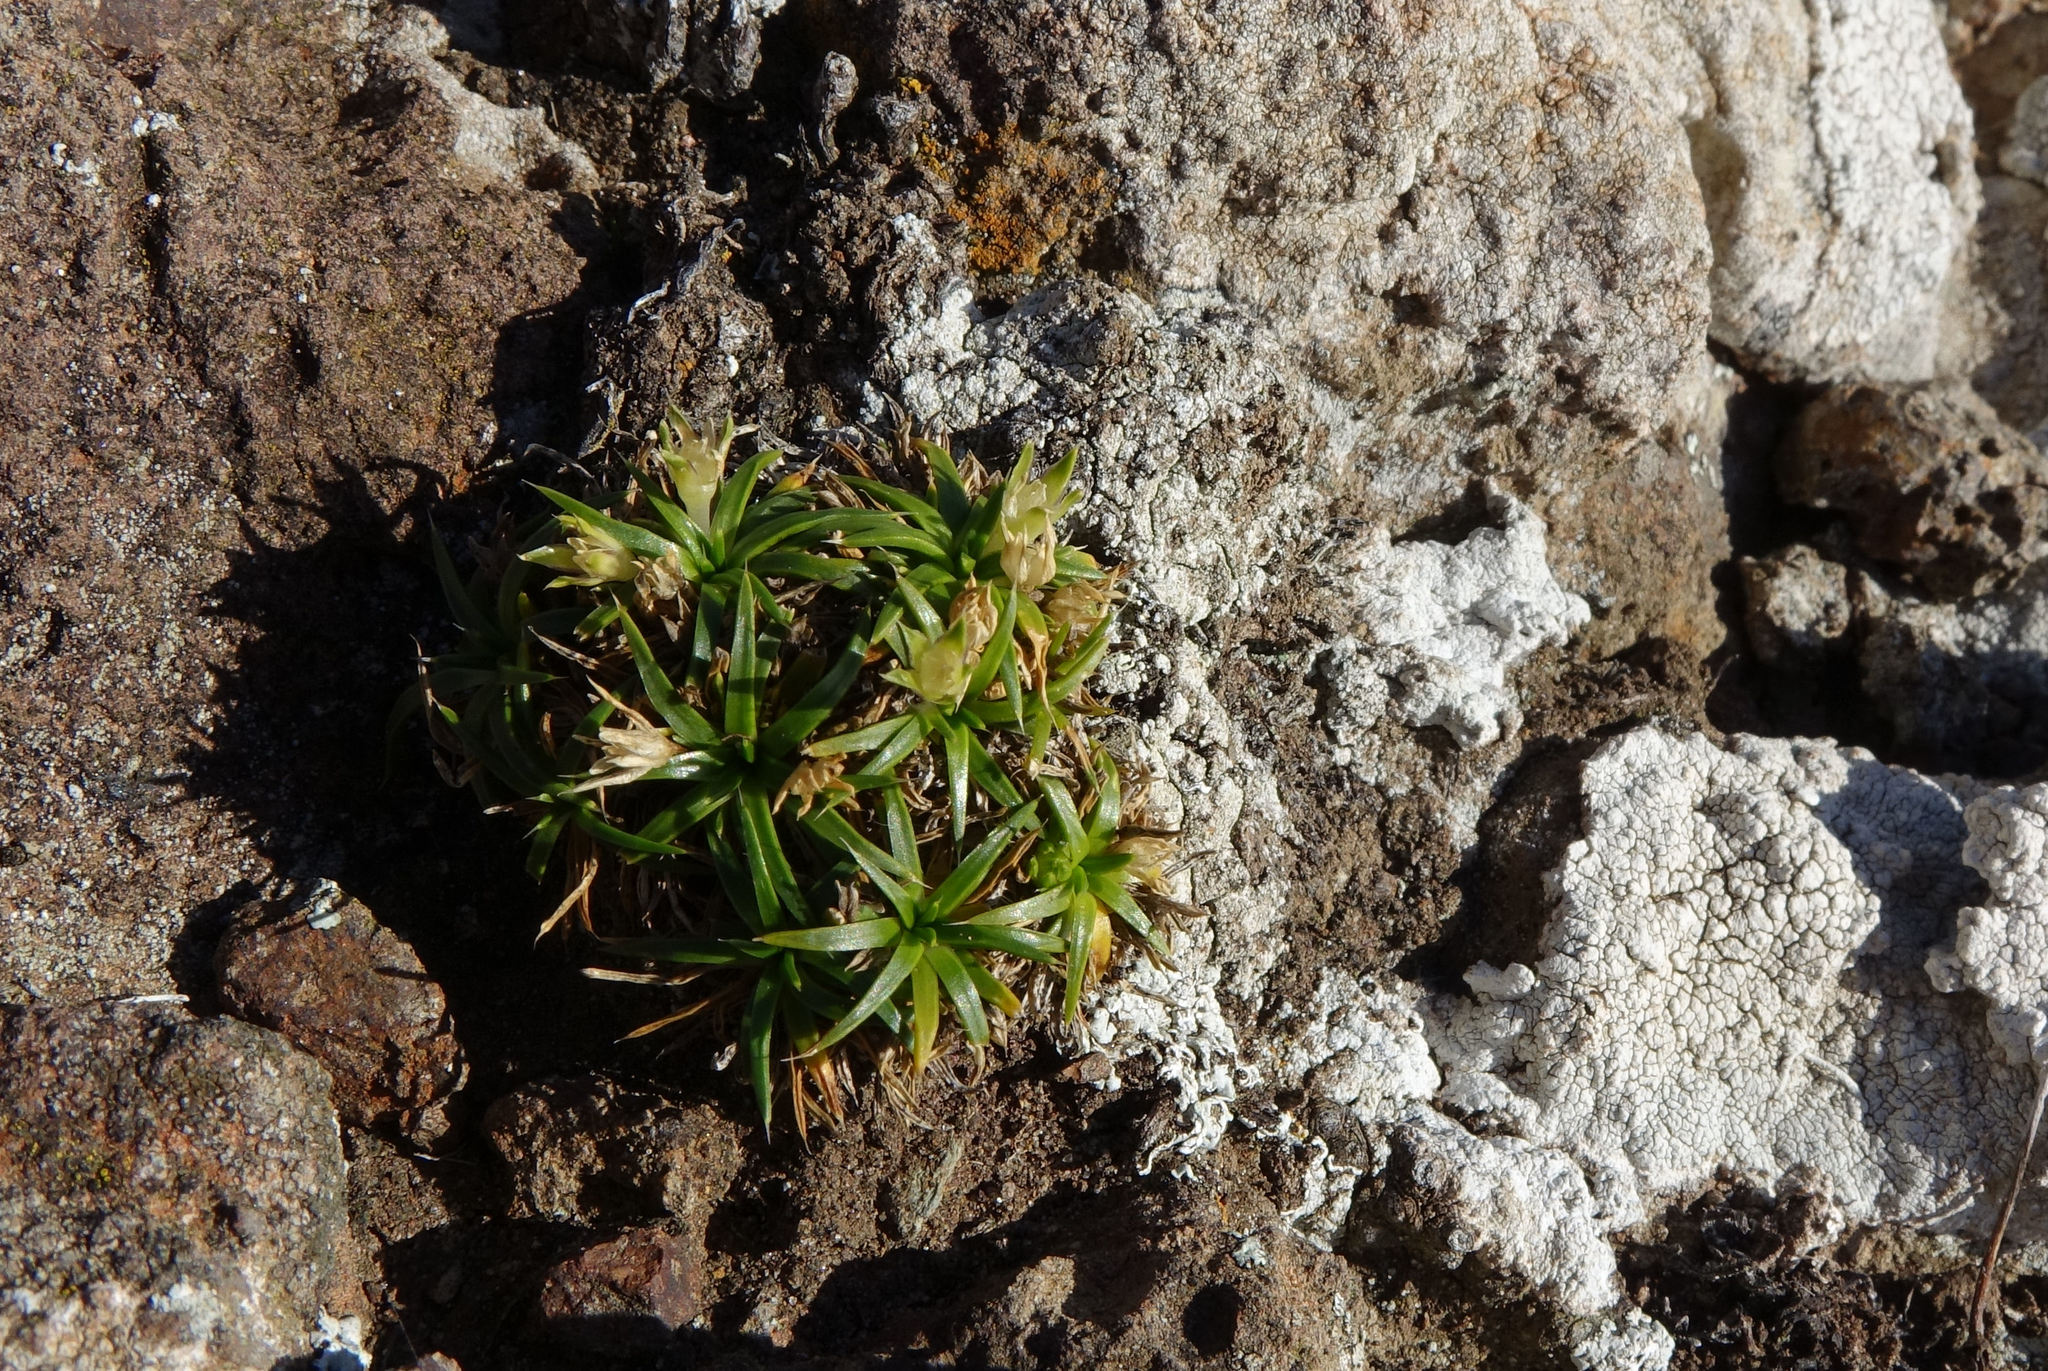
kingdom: Plantae
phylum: Tracheophyta
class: Magnoliopsida
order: Caryophyllales
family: Caryophyllaceae
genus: Colobanthus
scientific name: Colobanthus muelleri
